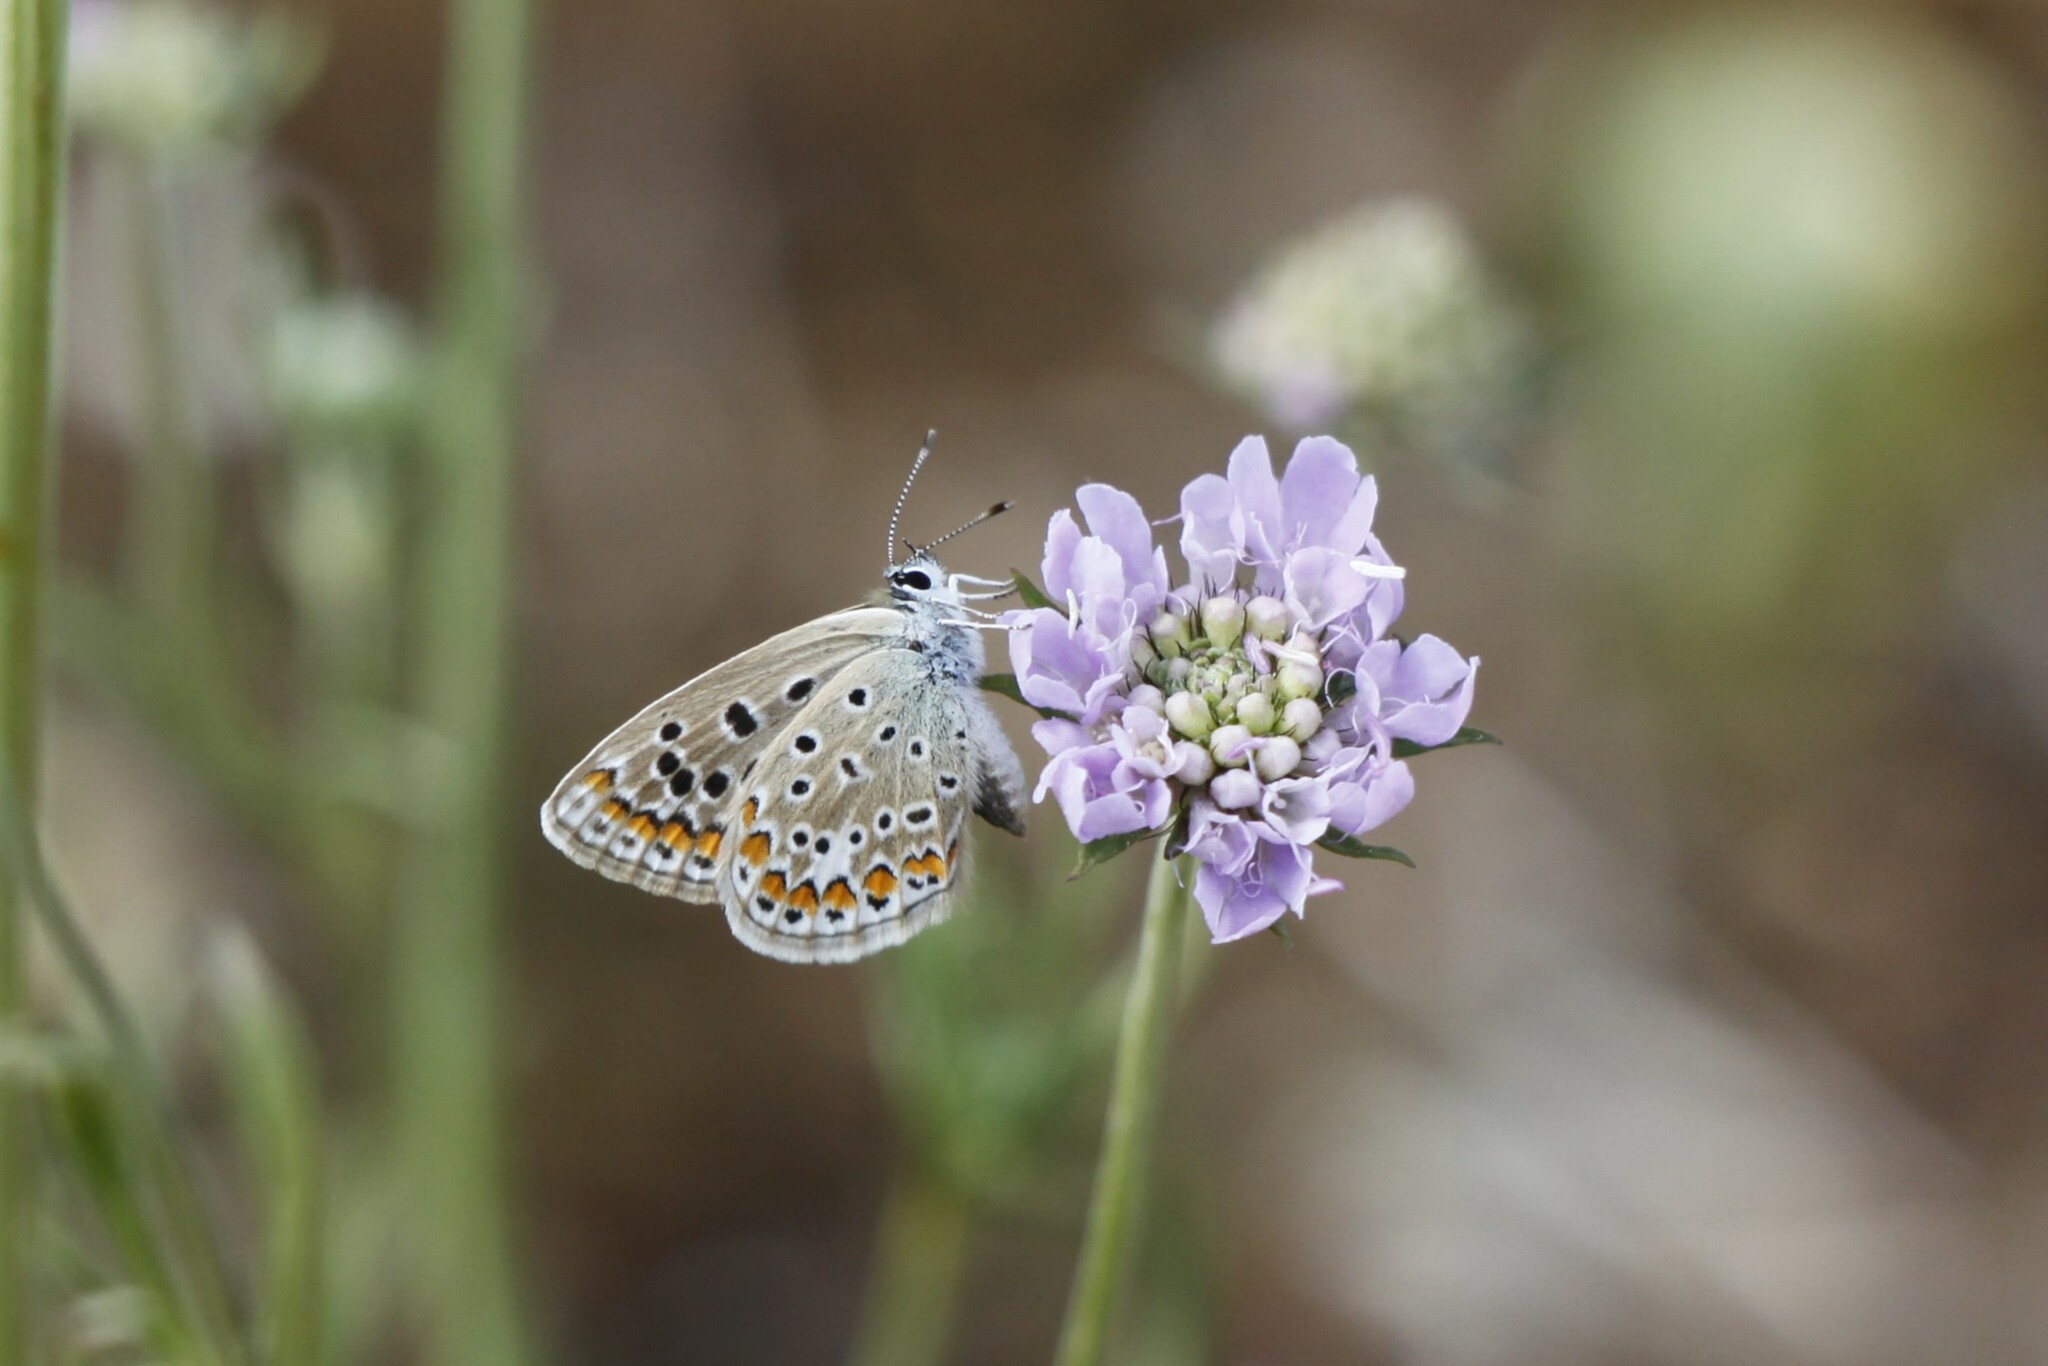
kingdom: Animalia
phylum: Arthropoda
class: Insecta
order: Lepidoptera
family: Lycaenidae
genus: Polyommatus
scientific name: Polyommatus icarus
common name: Common blue
